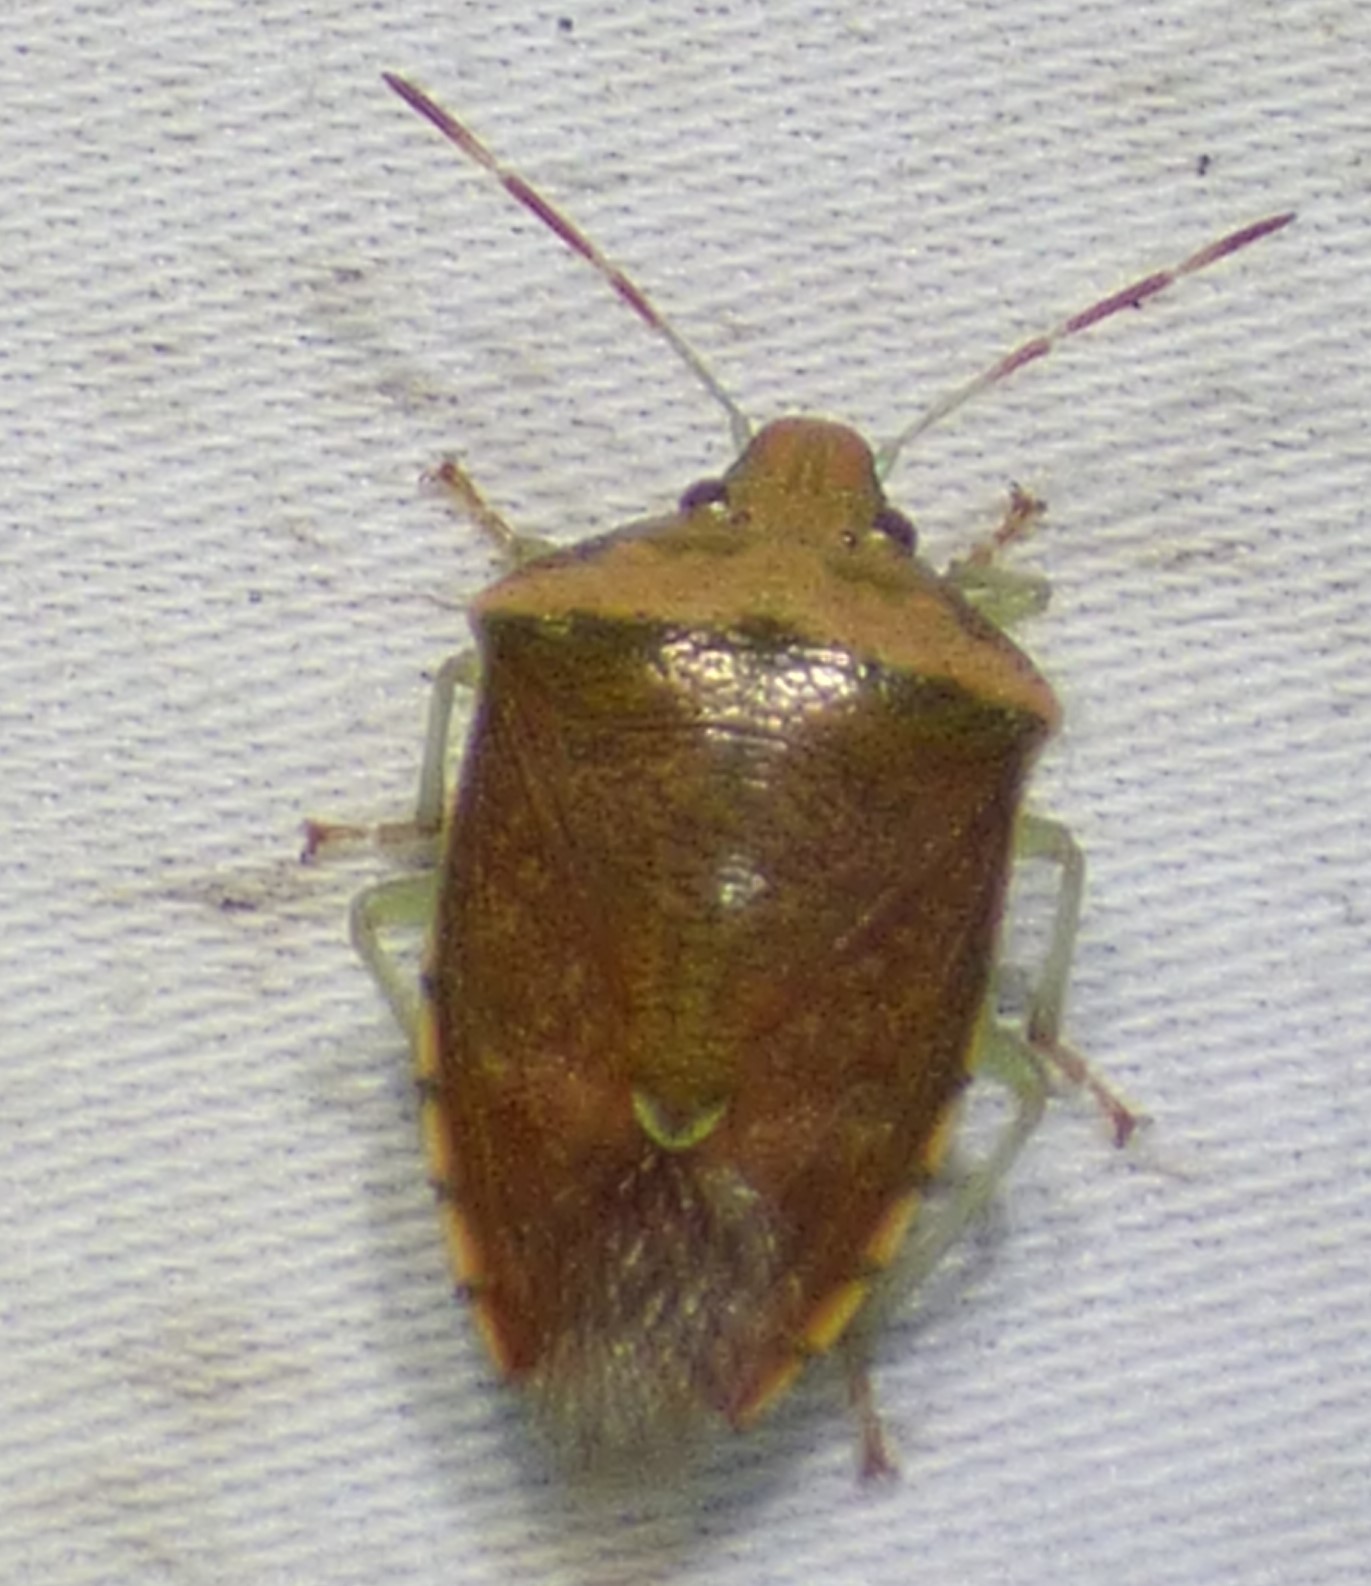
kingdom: Animalia
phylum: Arthropoda
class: Insecta
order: Hemiptera
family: Pentatomidae
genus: Banasa
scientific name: Banasa calva
